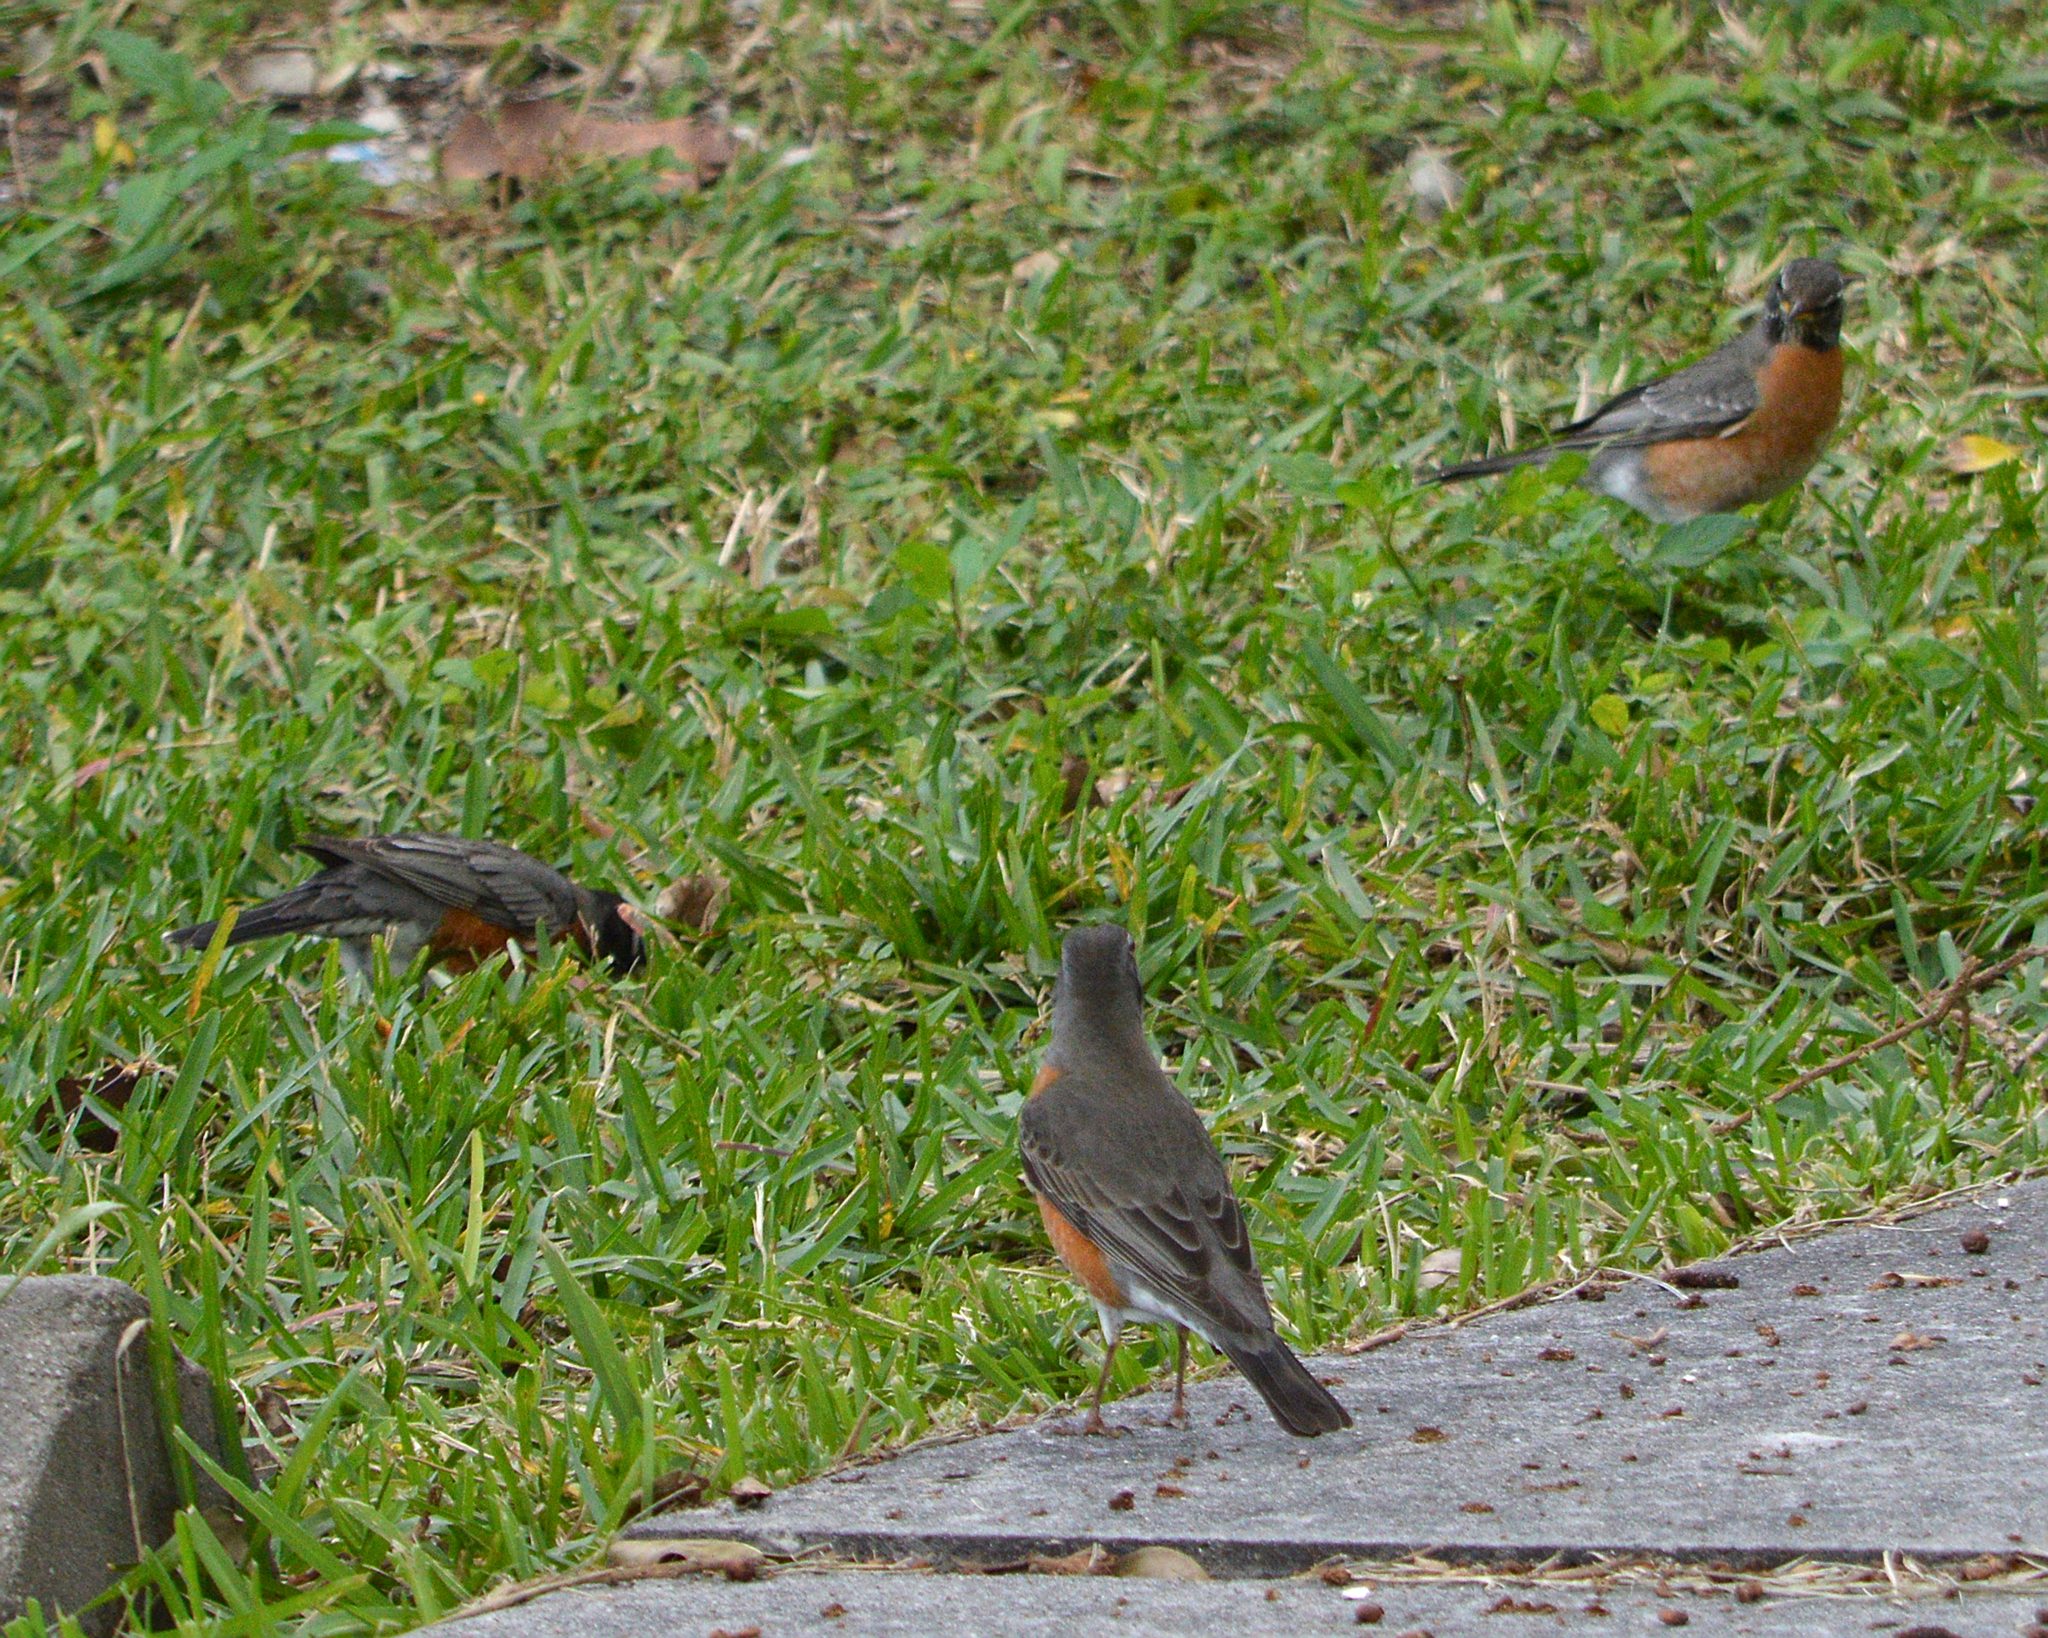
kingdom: Animalia
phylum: Chordata
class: Aves
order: Passeriformes
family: Turdidae
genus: Turdus
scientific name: Turdus migratorius
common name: American robin
